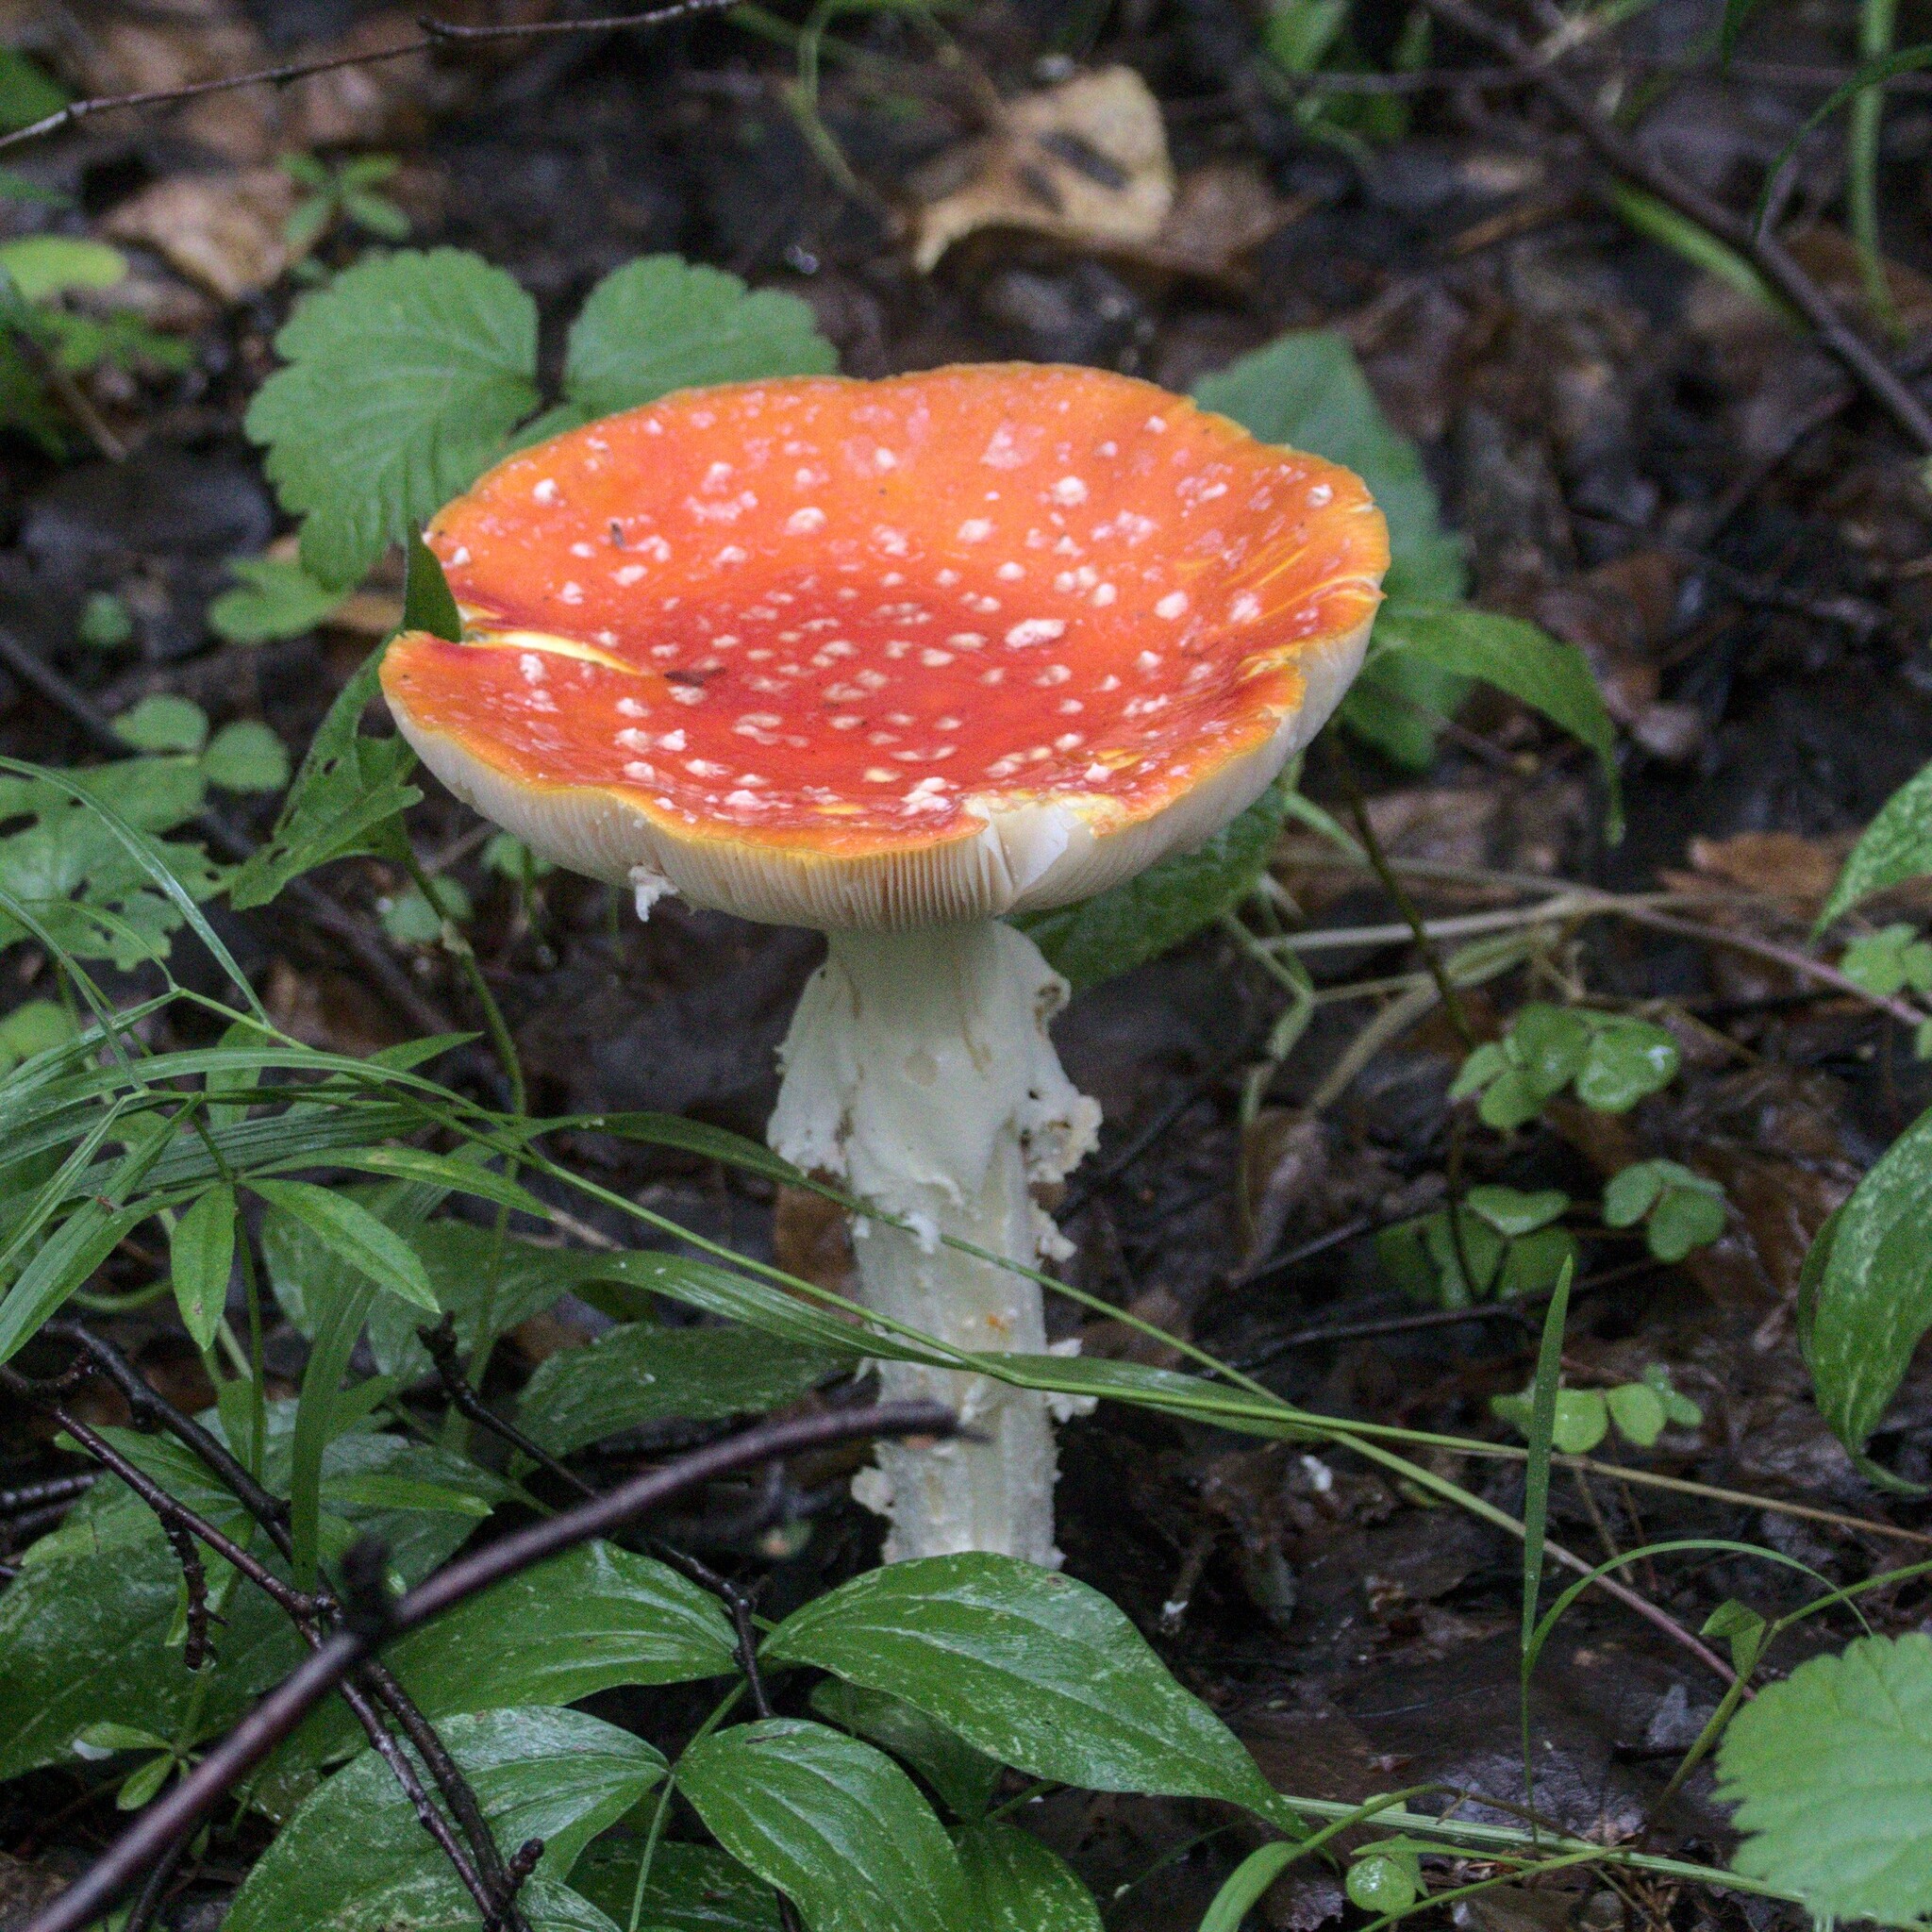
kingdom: Fungi
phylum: Basidiomycota
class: Agaricomycetes
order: Agaricales
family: Amanitaceae
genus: Amanita
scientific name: Amanita muscaria
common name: Fly agaric
